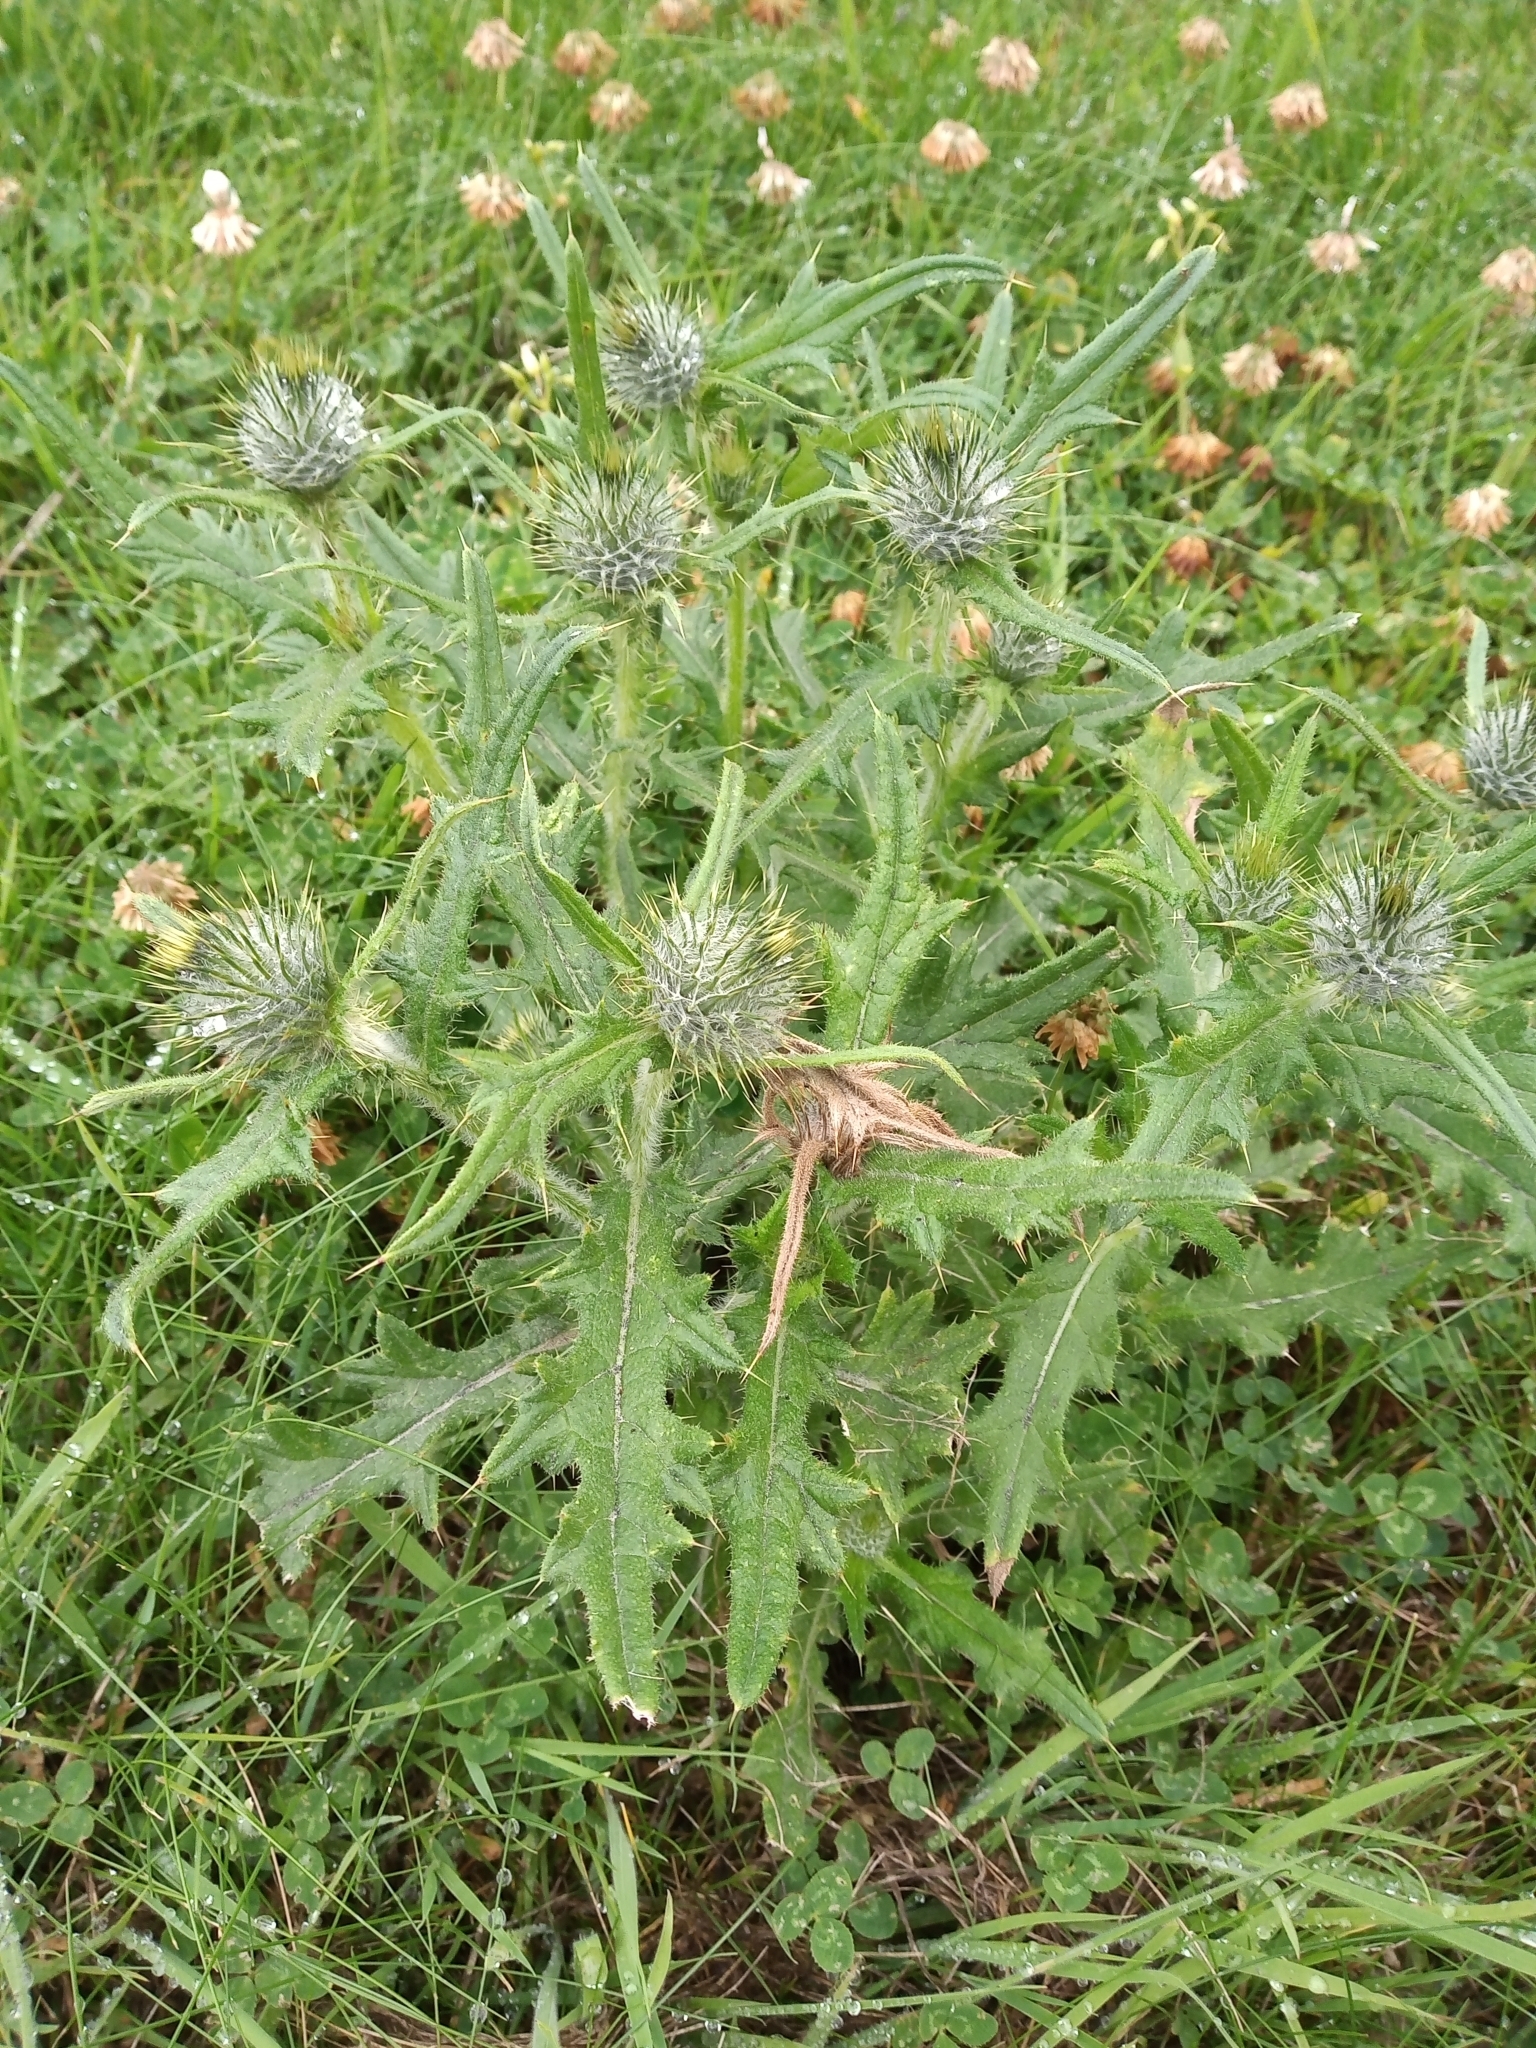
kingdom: Plantae
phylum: Tracheophyta
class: Magnoliopsida
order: Asterales
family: Asteraceae
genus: Cirsium
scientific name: Cirsium vulgare
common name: Bull thistle
